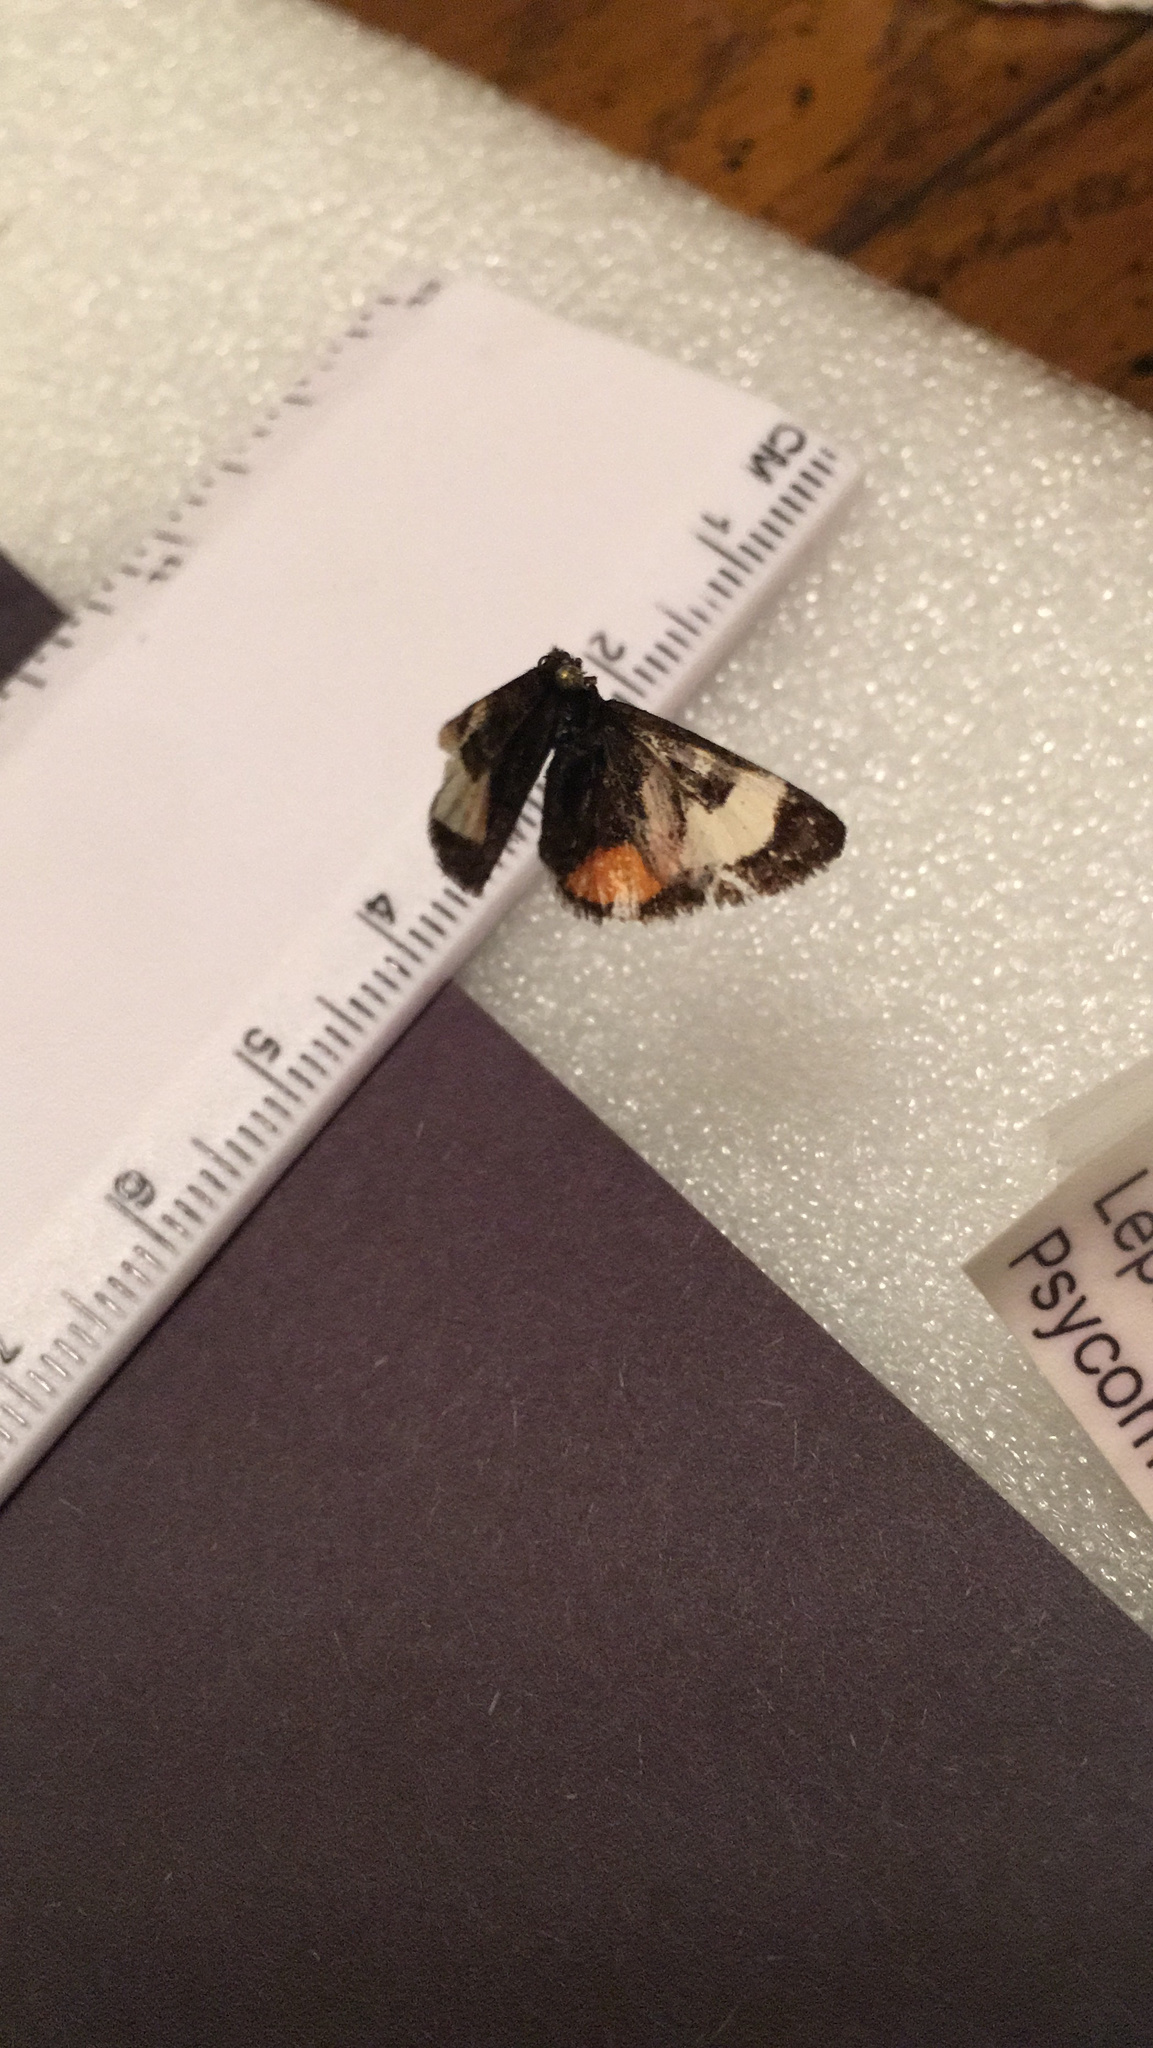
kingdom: Animalia
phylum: Arthropoda
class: Insecta
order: Lepidoptera
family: Noctuidae
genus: Psychomorpha
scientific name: Psychomorpha epimenis
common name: Grapevine epimenis moth
